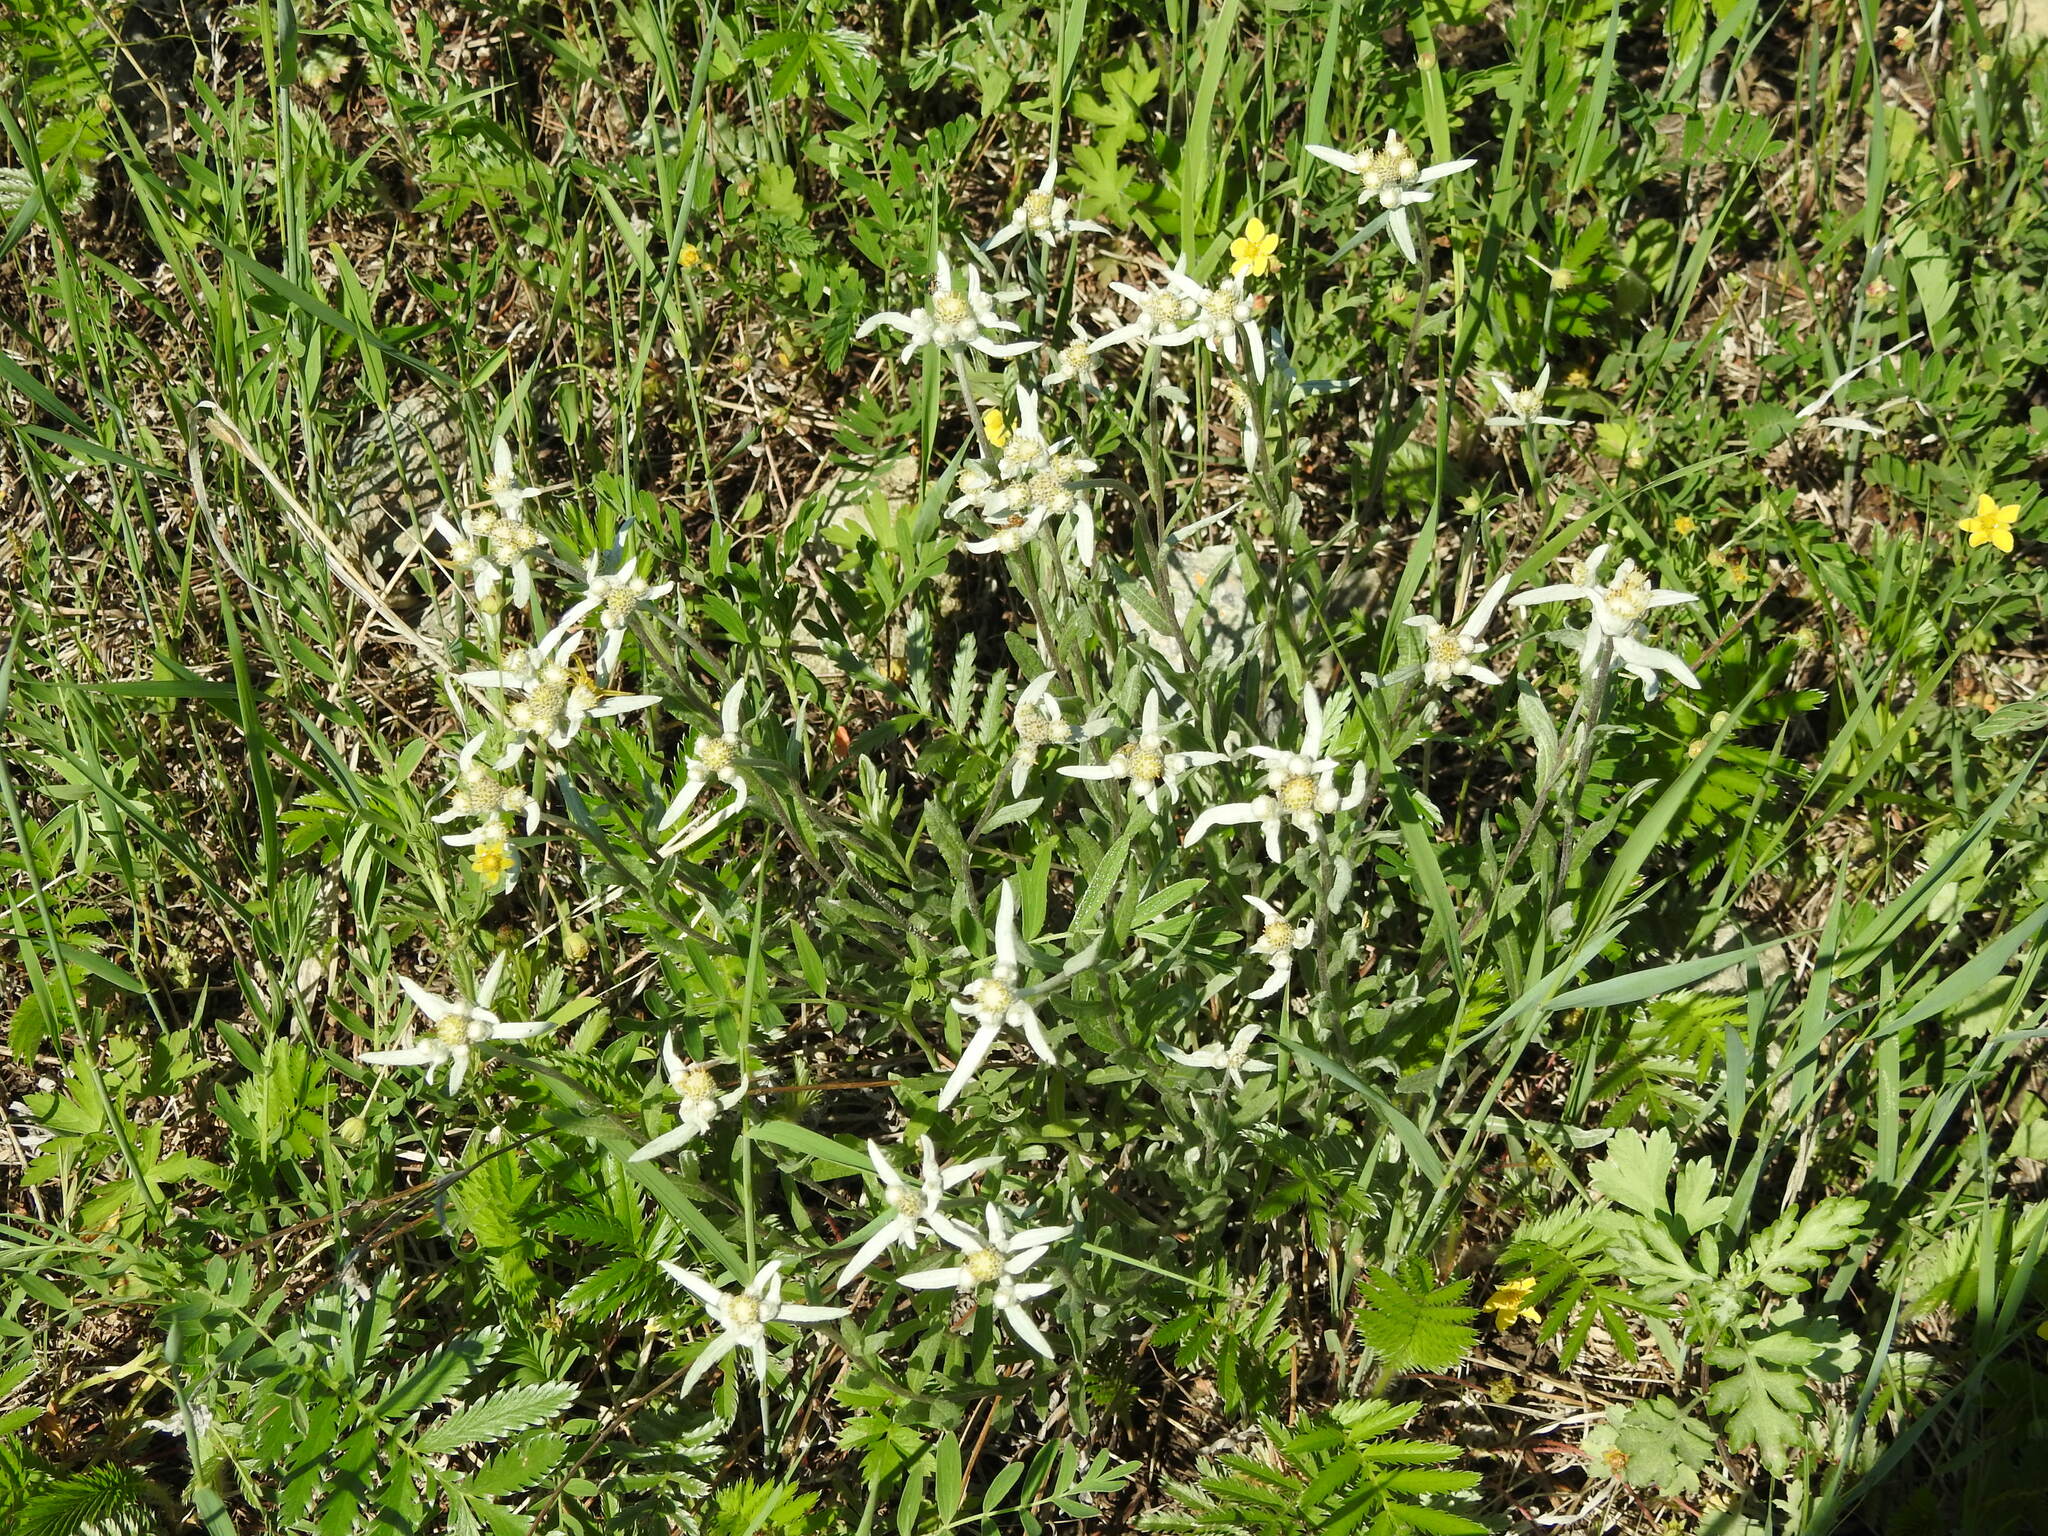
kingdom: Plantae
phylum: Tracheophyta
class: Magnoliopsida
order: Asterales
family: Asteraceae
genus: Leontopodium
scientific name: Leontopodium leontopodioides
